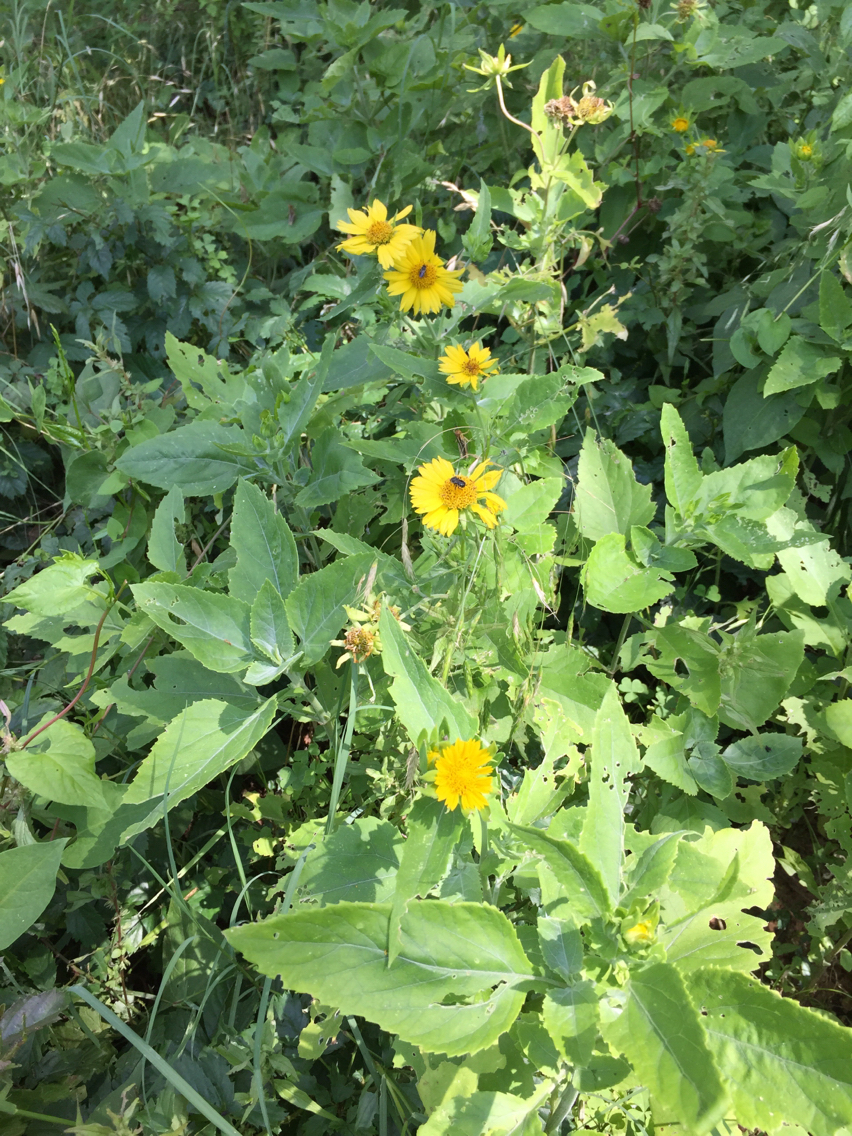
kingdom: Plantae
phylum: Tracheophyta
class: Magnoliopsida
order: Asterales
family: Asteraceae
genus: Verbesina
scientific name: Verbesina encelioides
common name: Golden crownbeard
